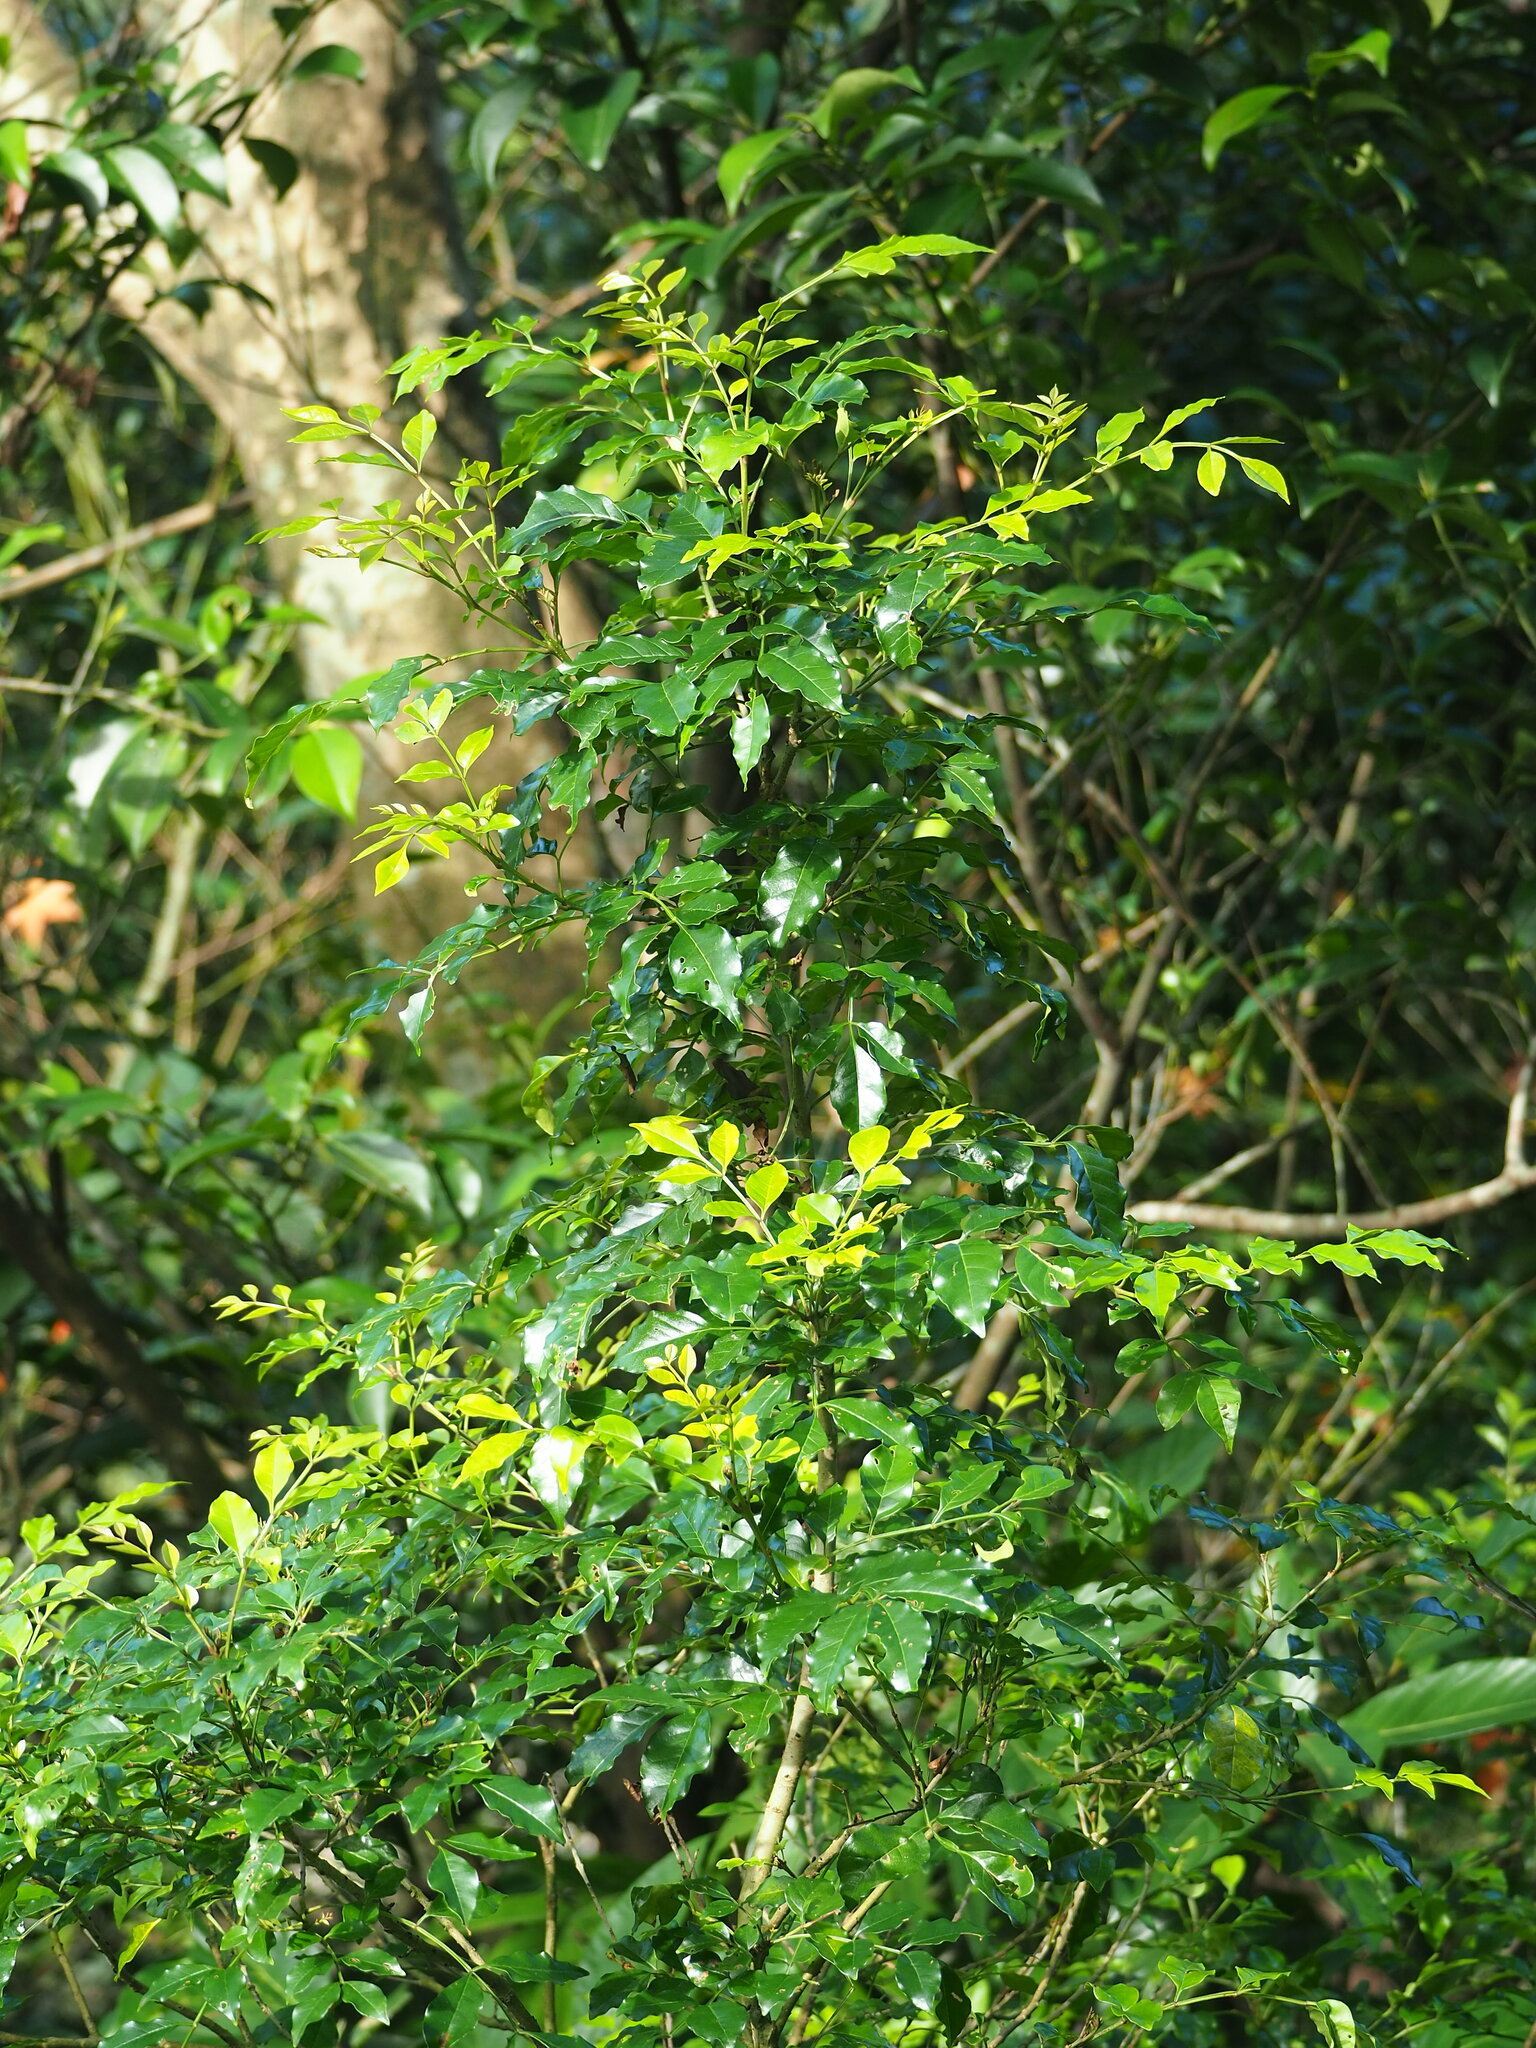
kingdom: Plantae
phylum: Tracheophyta
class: Magnoliopsida
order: Lamiales
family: Oleaceae
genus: Fraxinus
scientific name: Fraxinus griffithii
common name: Himalayan ash
